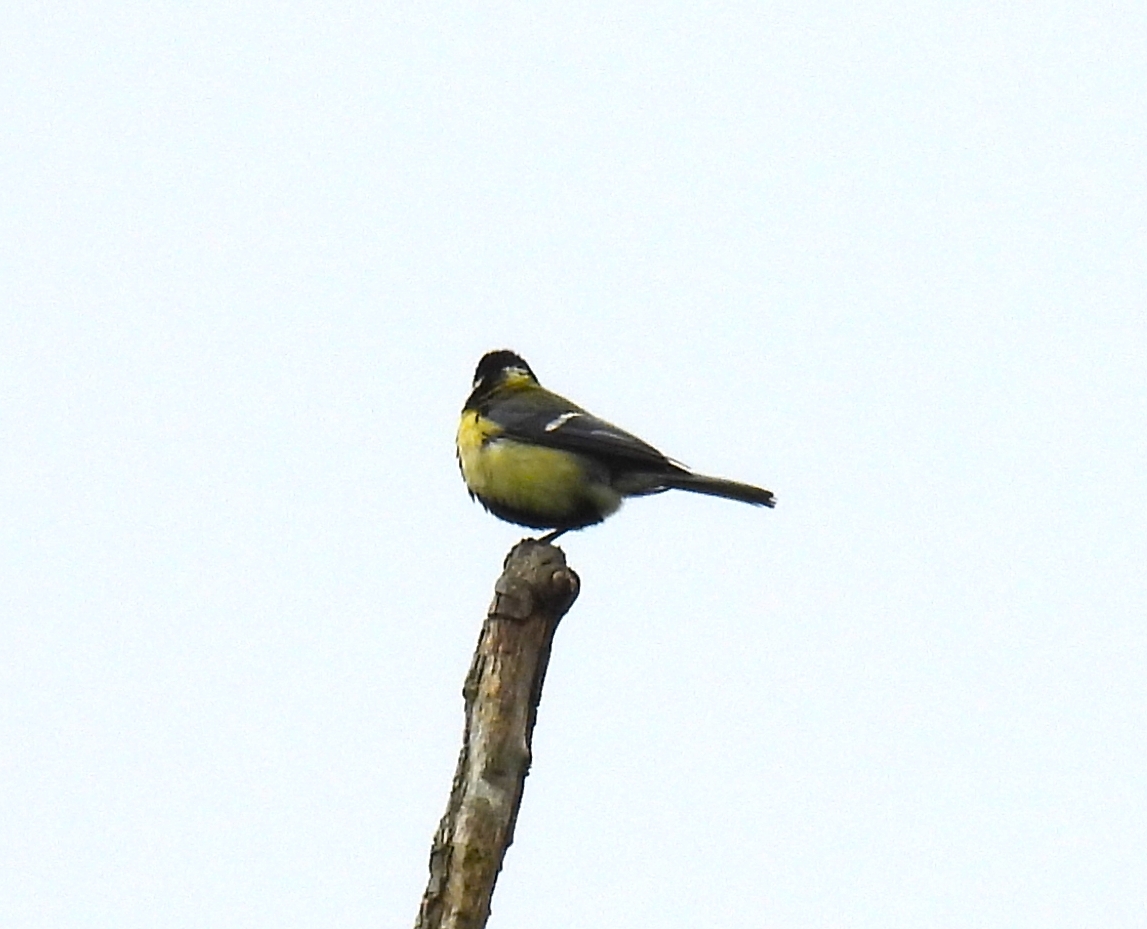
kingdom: Animalia
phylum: Chordata
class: Aves
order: Passeriformes
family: Paridae
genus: Parus
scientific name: Parus major
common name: Great tit
